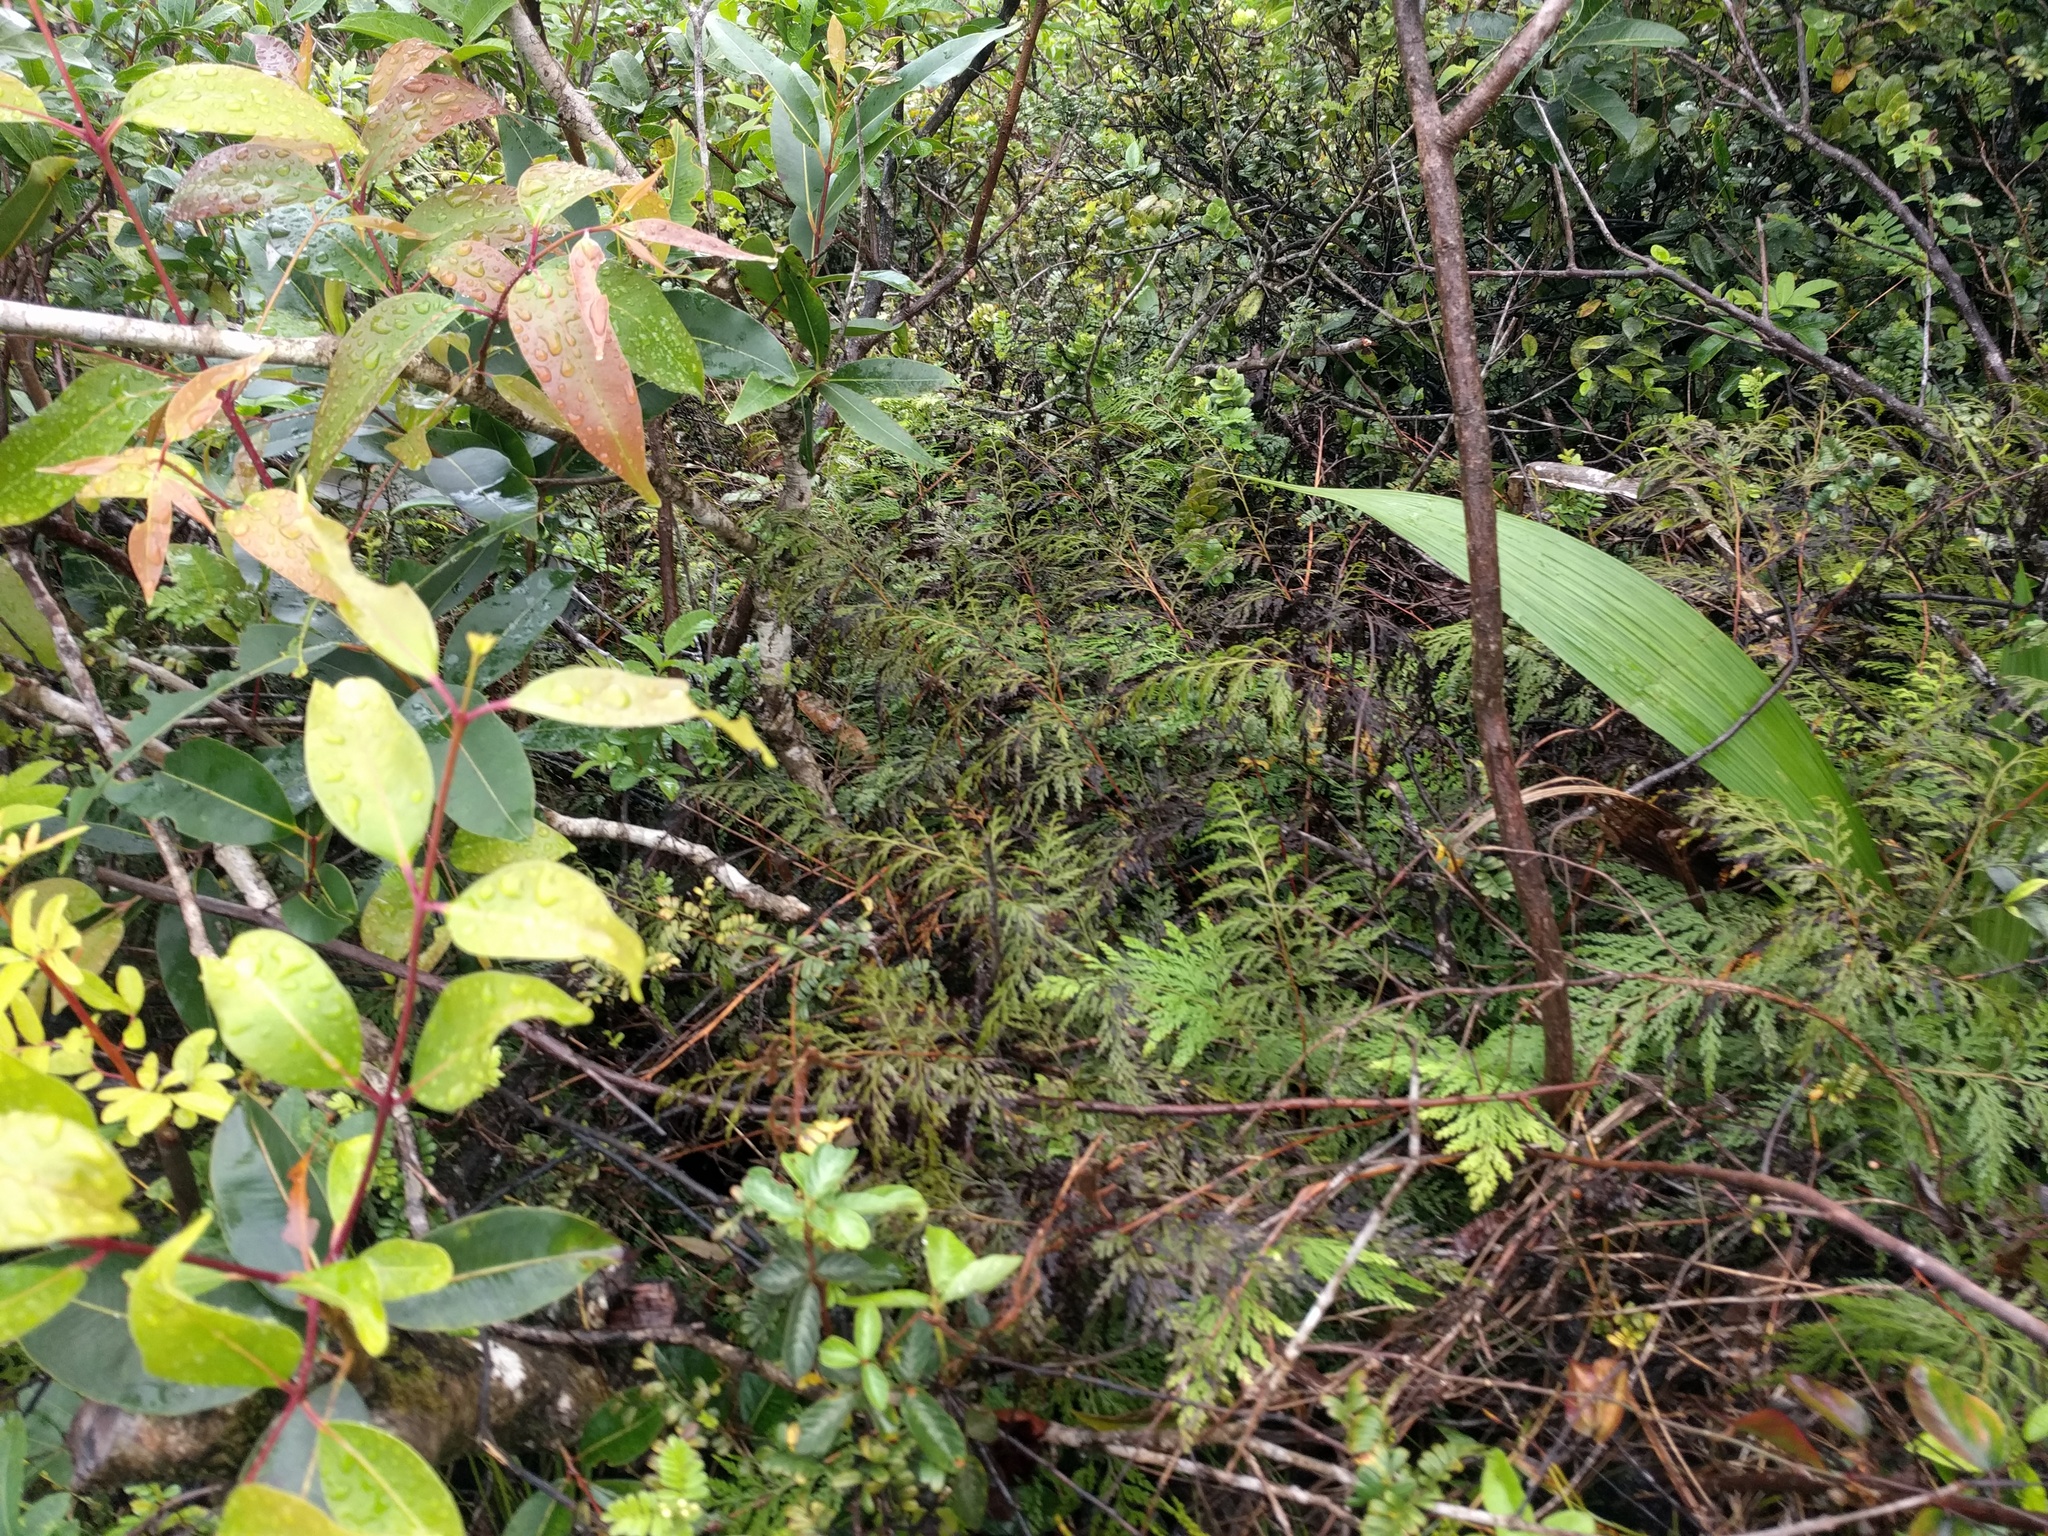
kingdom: Plantae
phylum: Tracheophyta
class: Polypodiopsida
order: Polypodiales
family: Lindsaeaceae
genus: Odontosoria
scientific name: Odontosoria chinensis
